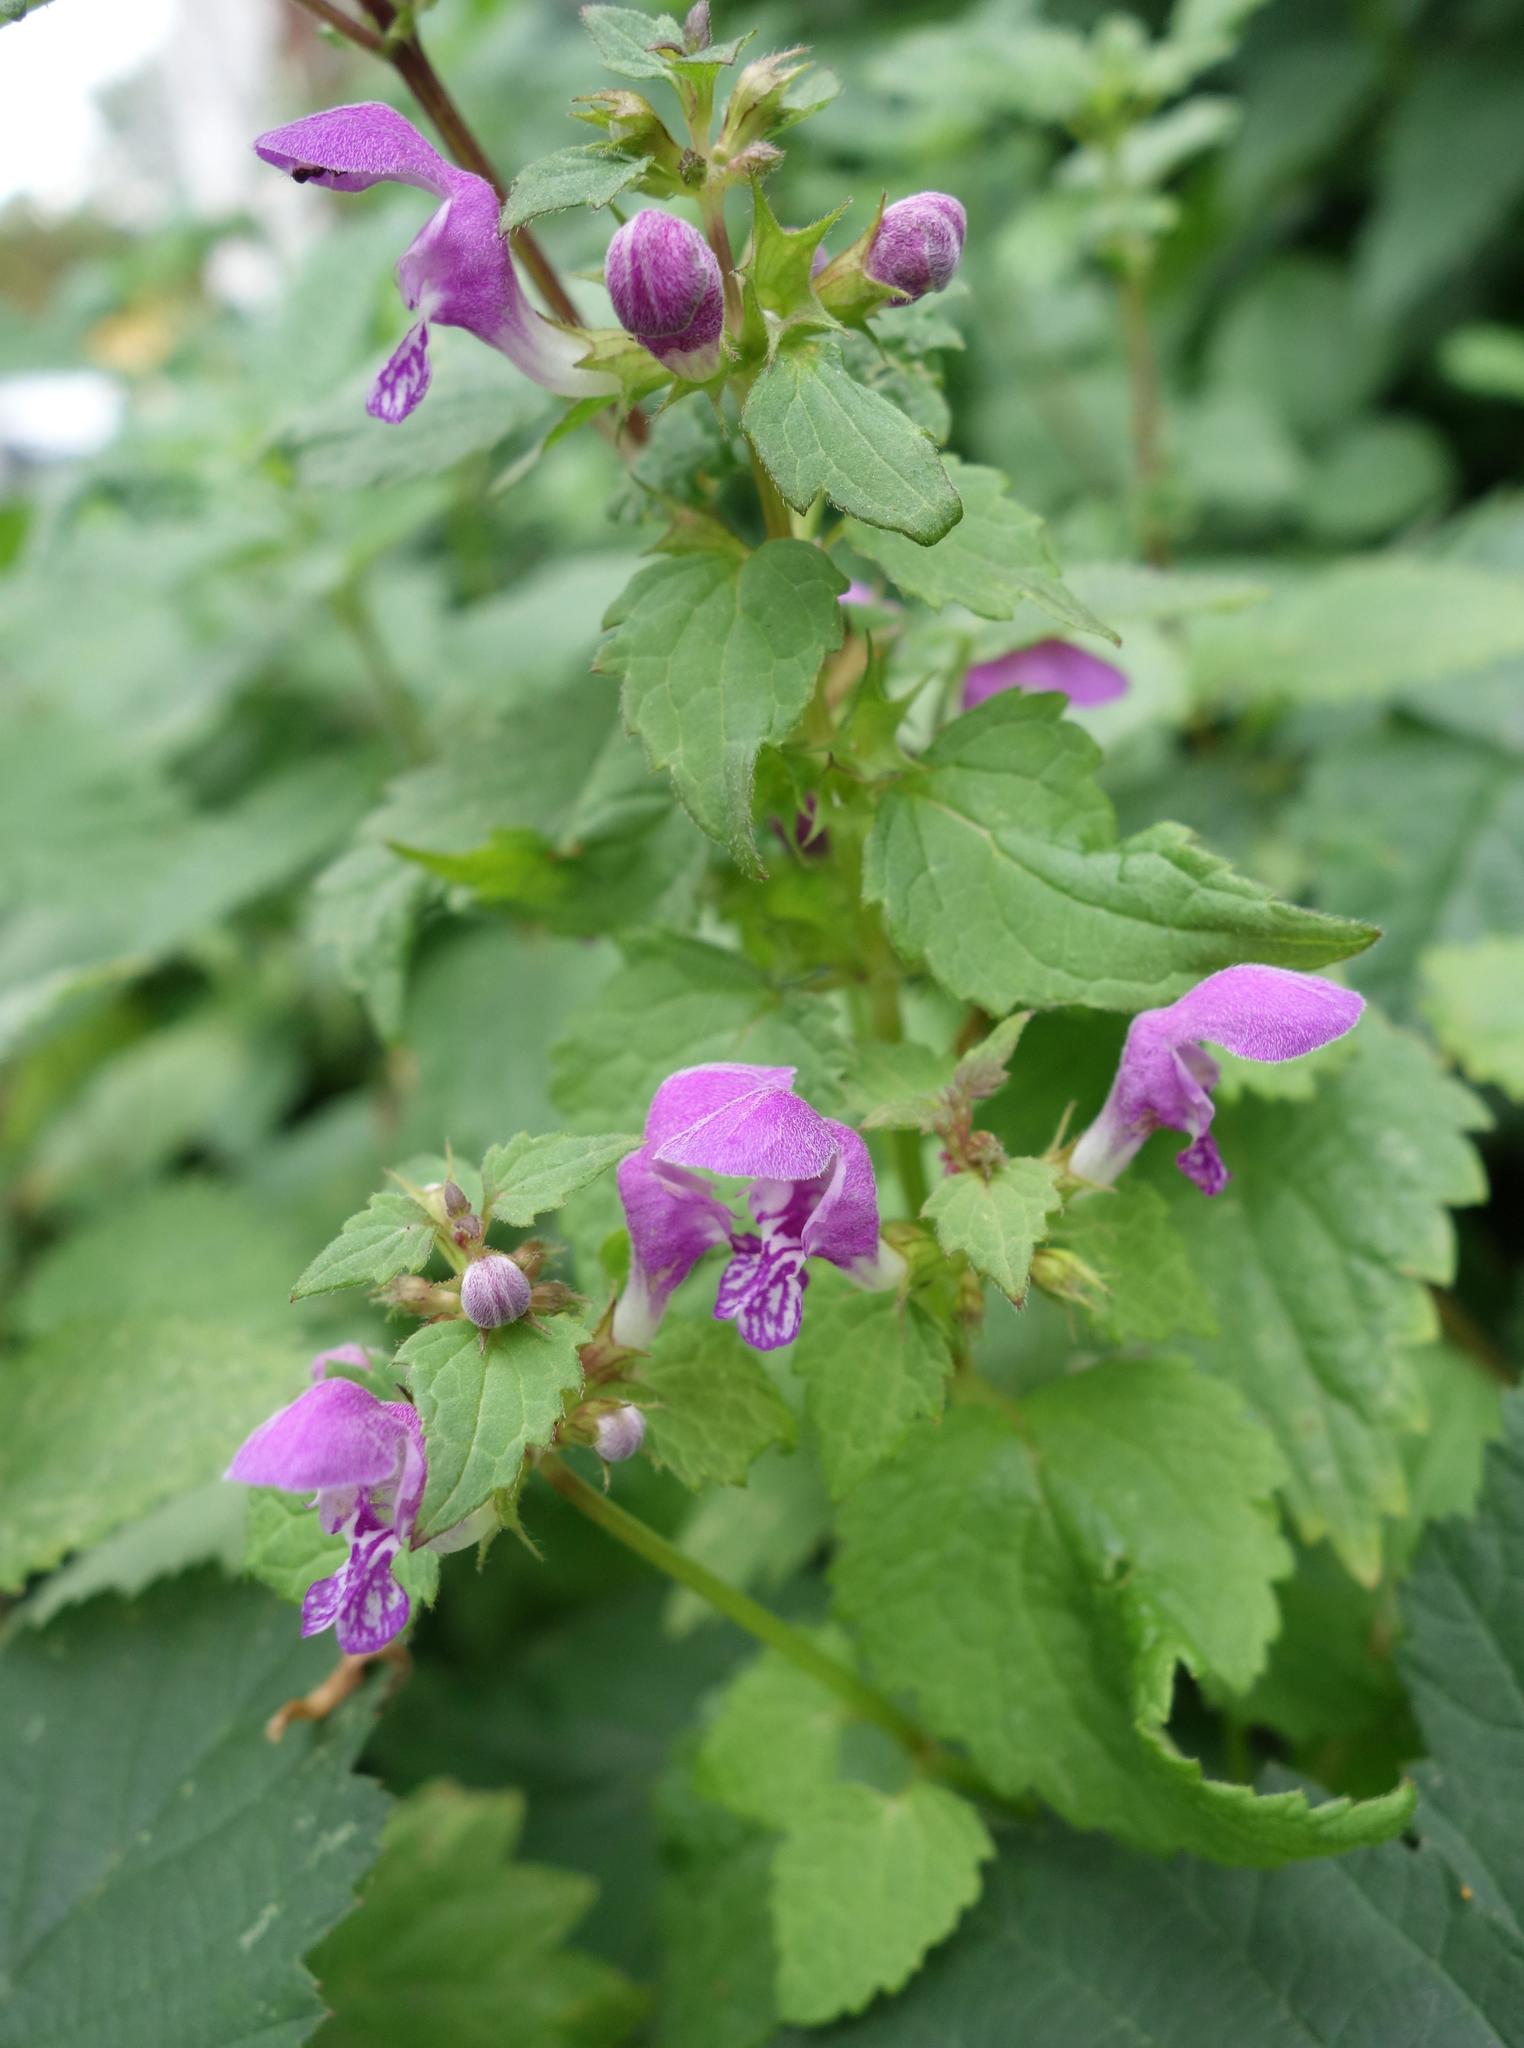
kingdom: Plantae
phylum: Tracheophyta
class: Magnoliopsida
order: Lamiales
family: Lamiaceae
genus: Lamium
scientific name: Lamium maculatum
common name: Spotted dead-nettle
